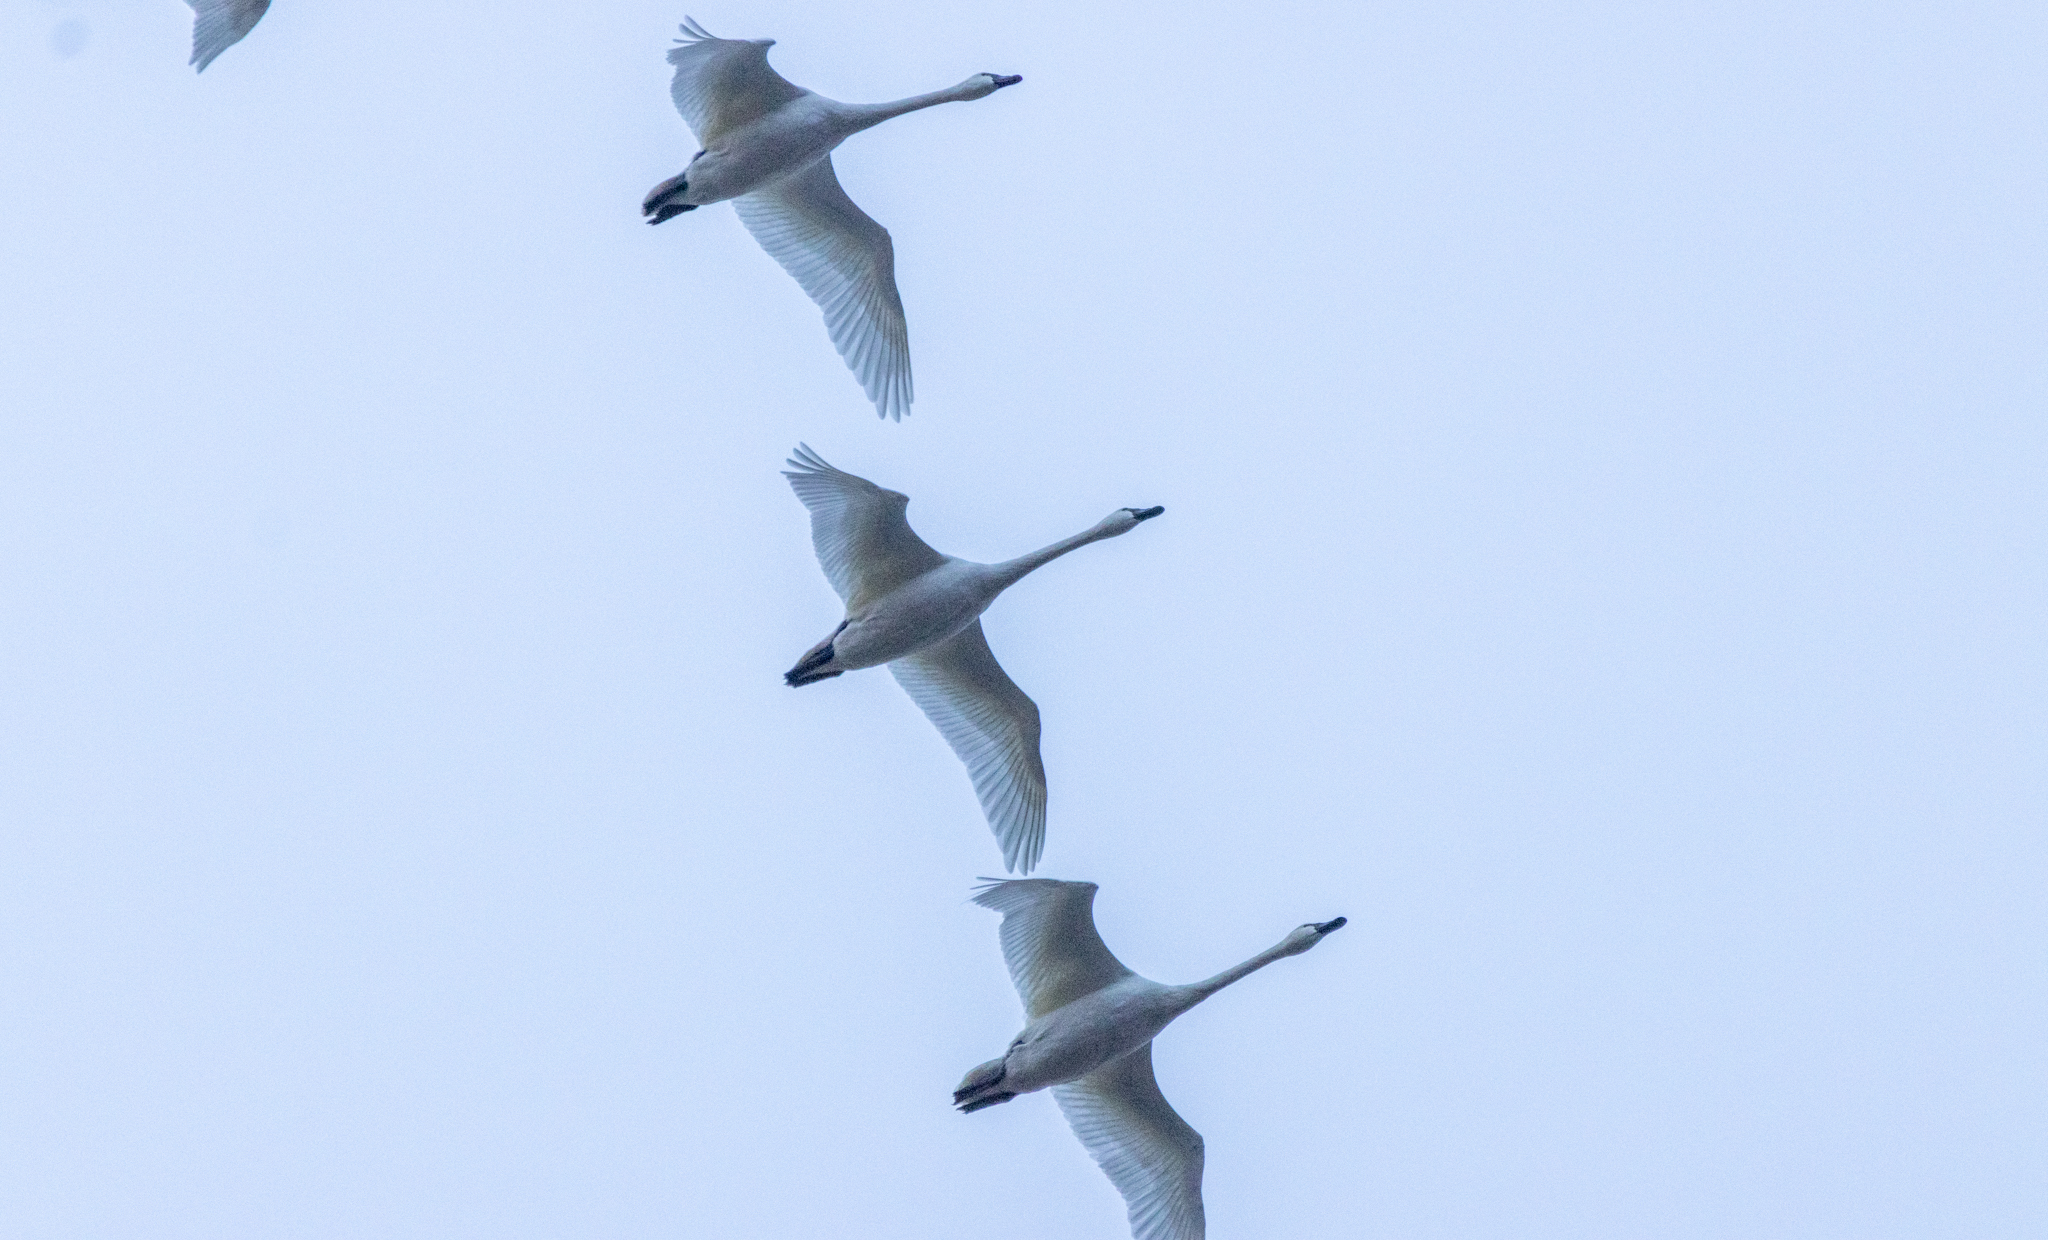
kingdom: Animalia
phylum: Chordata
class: Aves
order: Anseriformes
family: Anatidae
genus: Cygnus
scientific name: Cygnus columbianus
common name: Tundra swan
